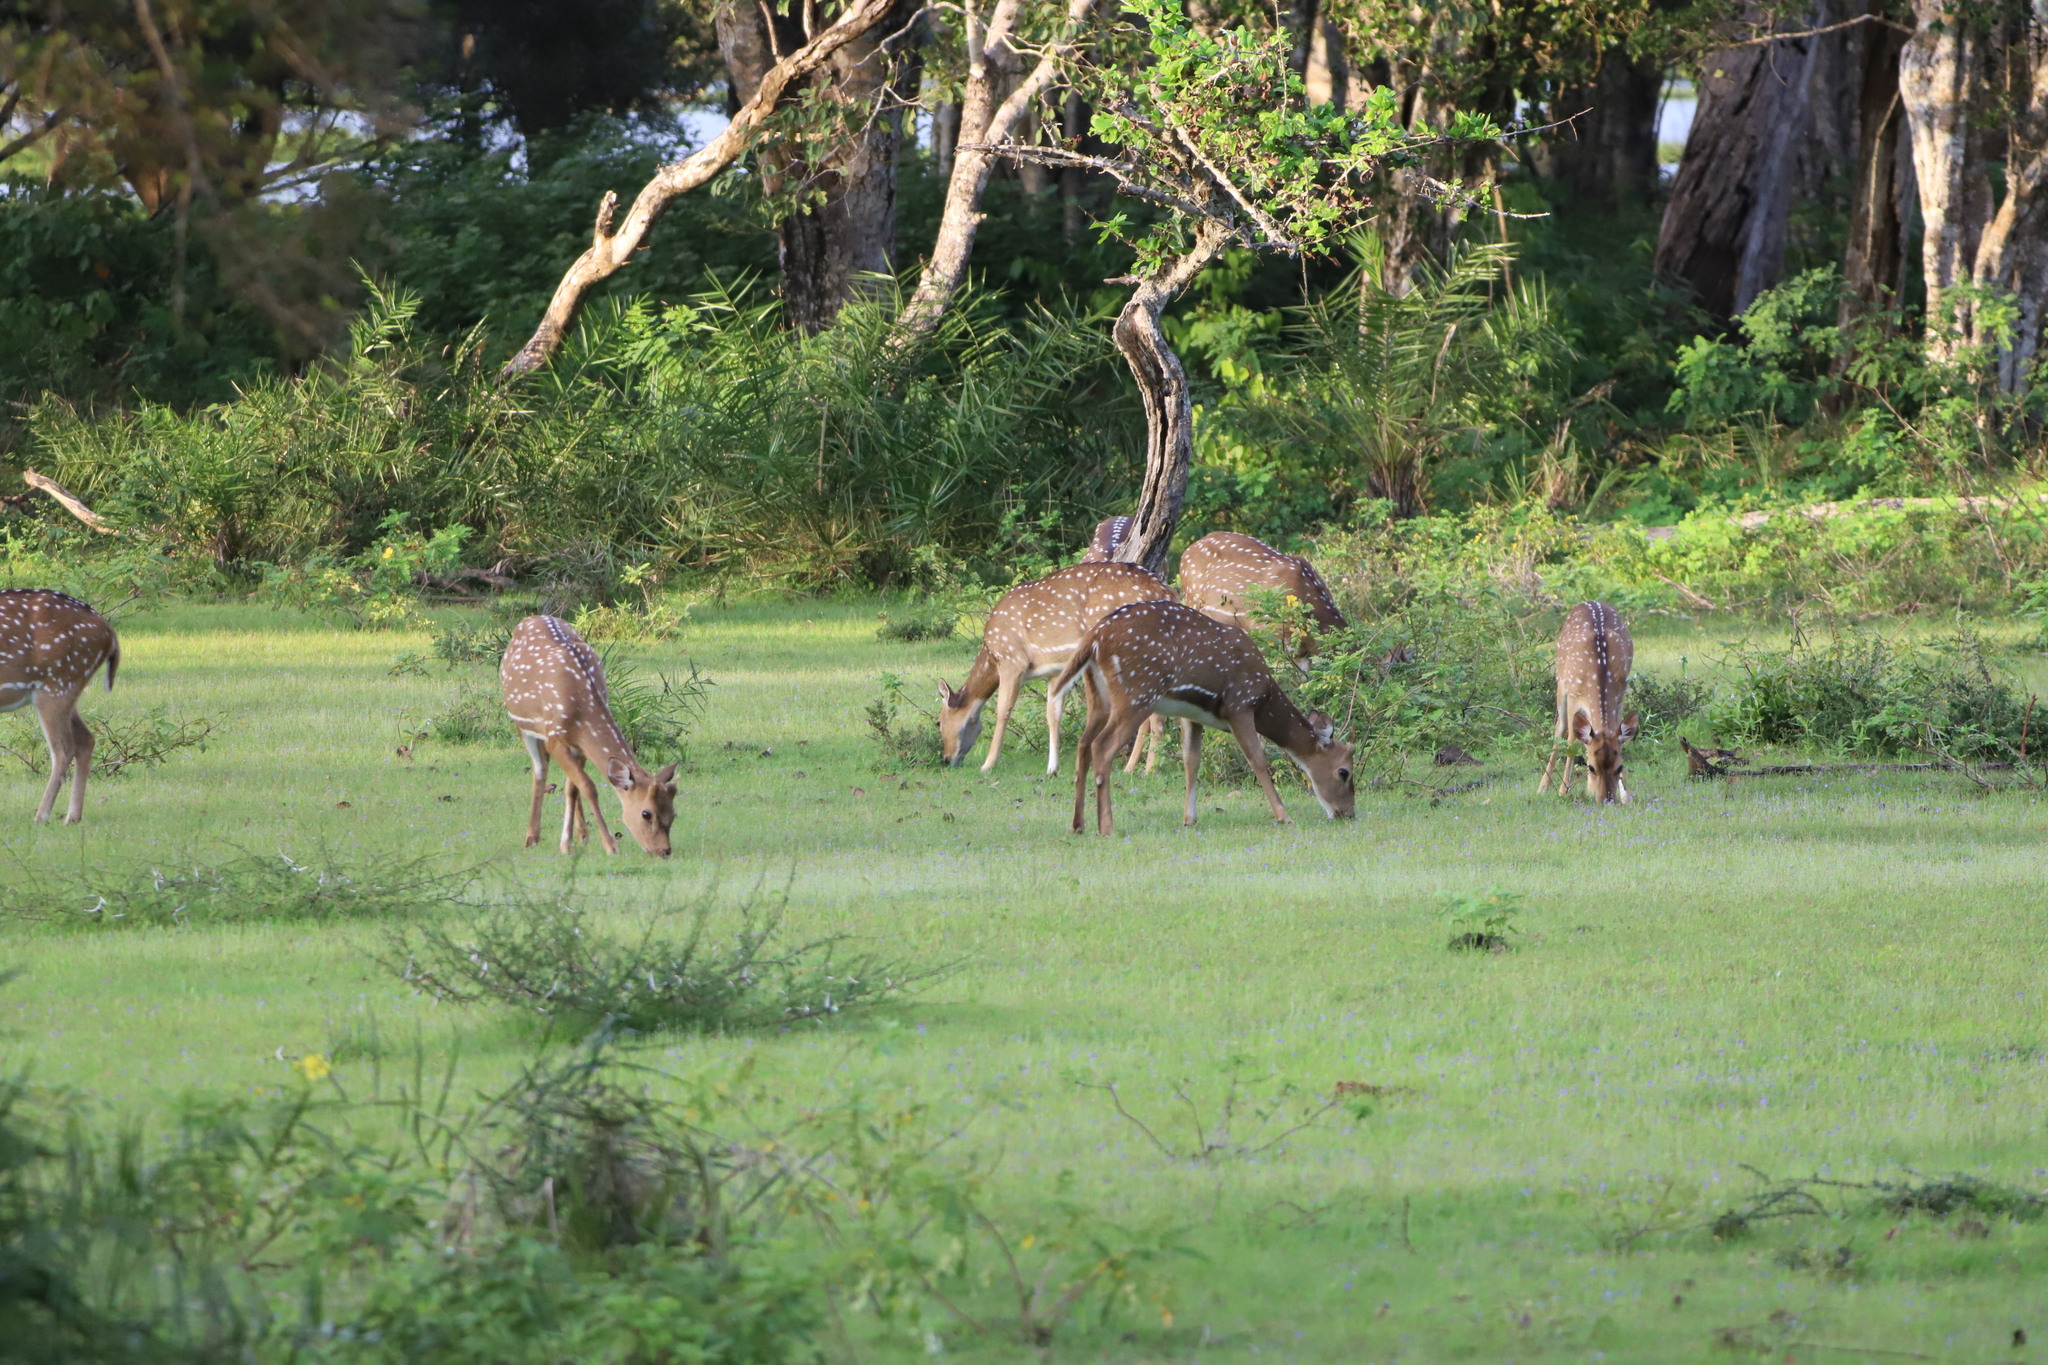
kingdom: Animalia
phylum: Chordata
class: Mammalia
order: Artiodactyla
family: Cervidae
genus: Axis
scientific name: Axis axis
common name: Chital
